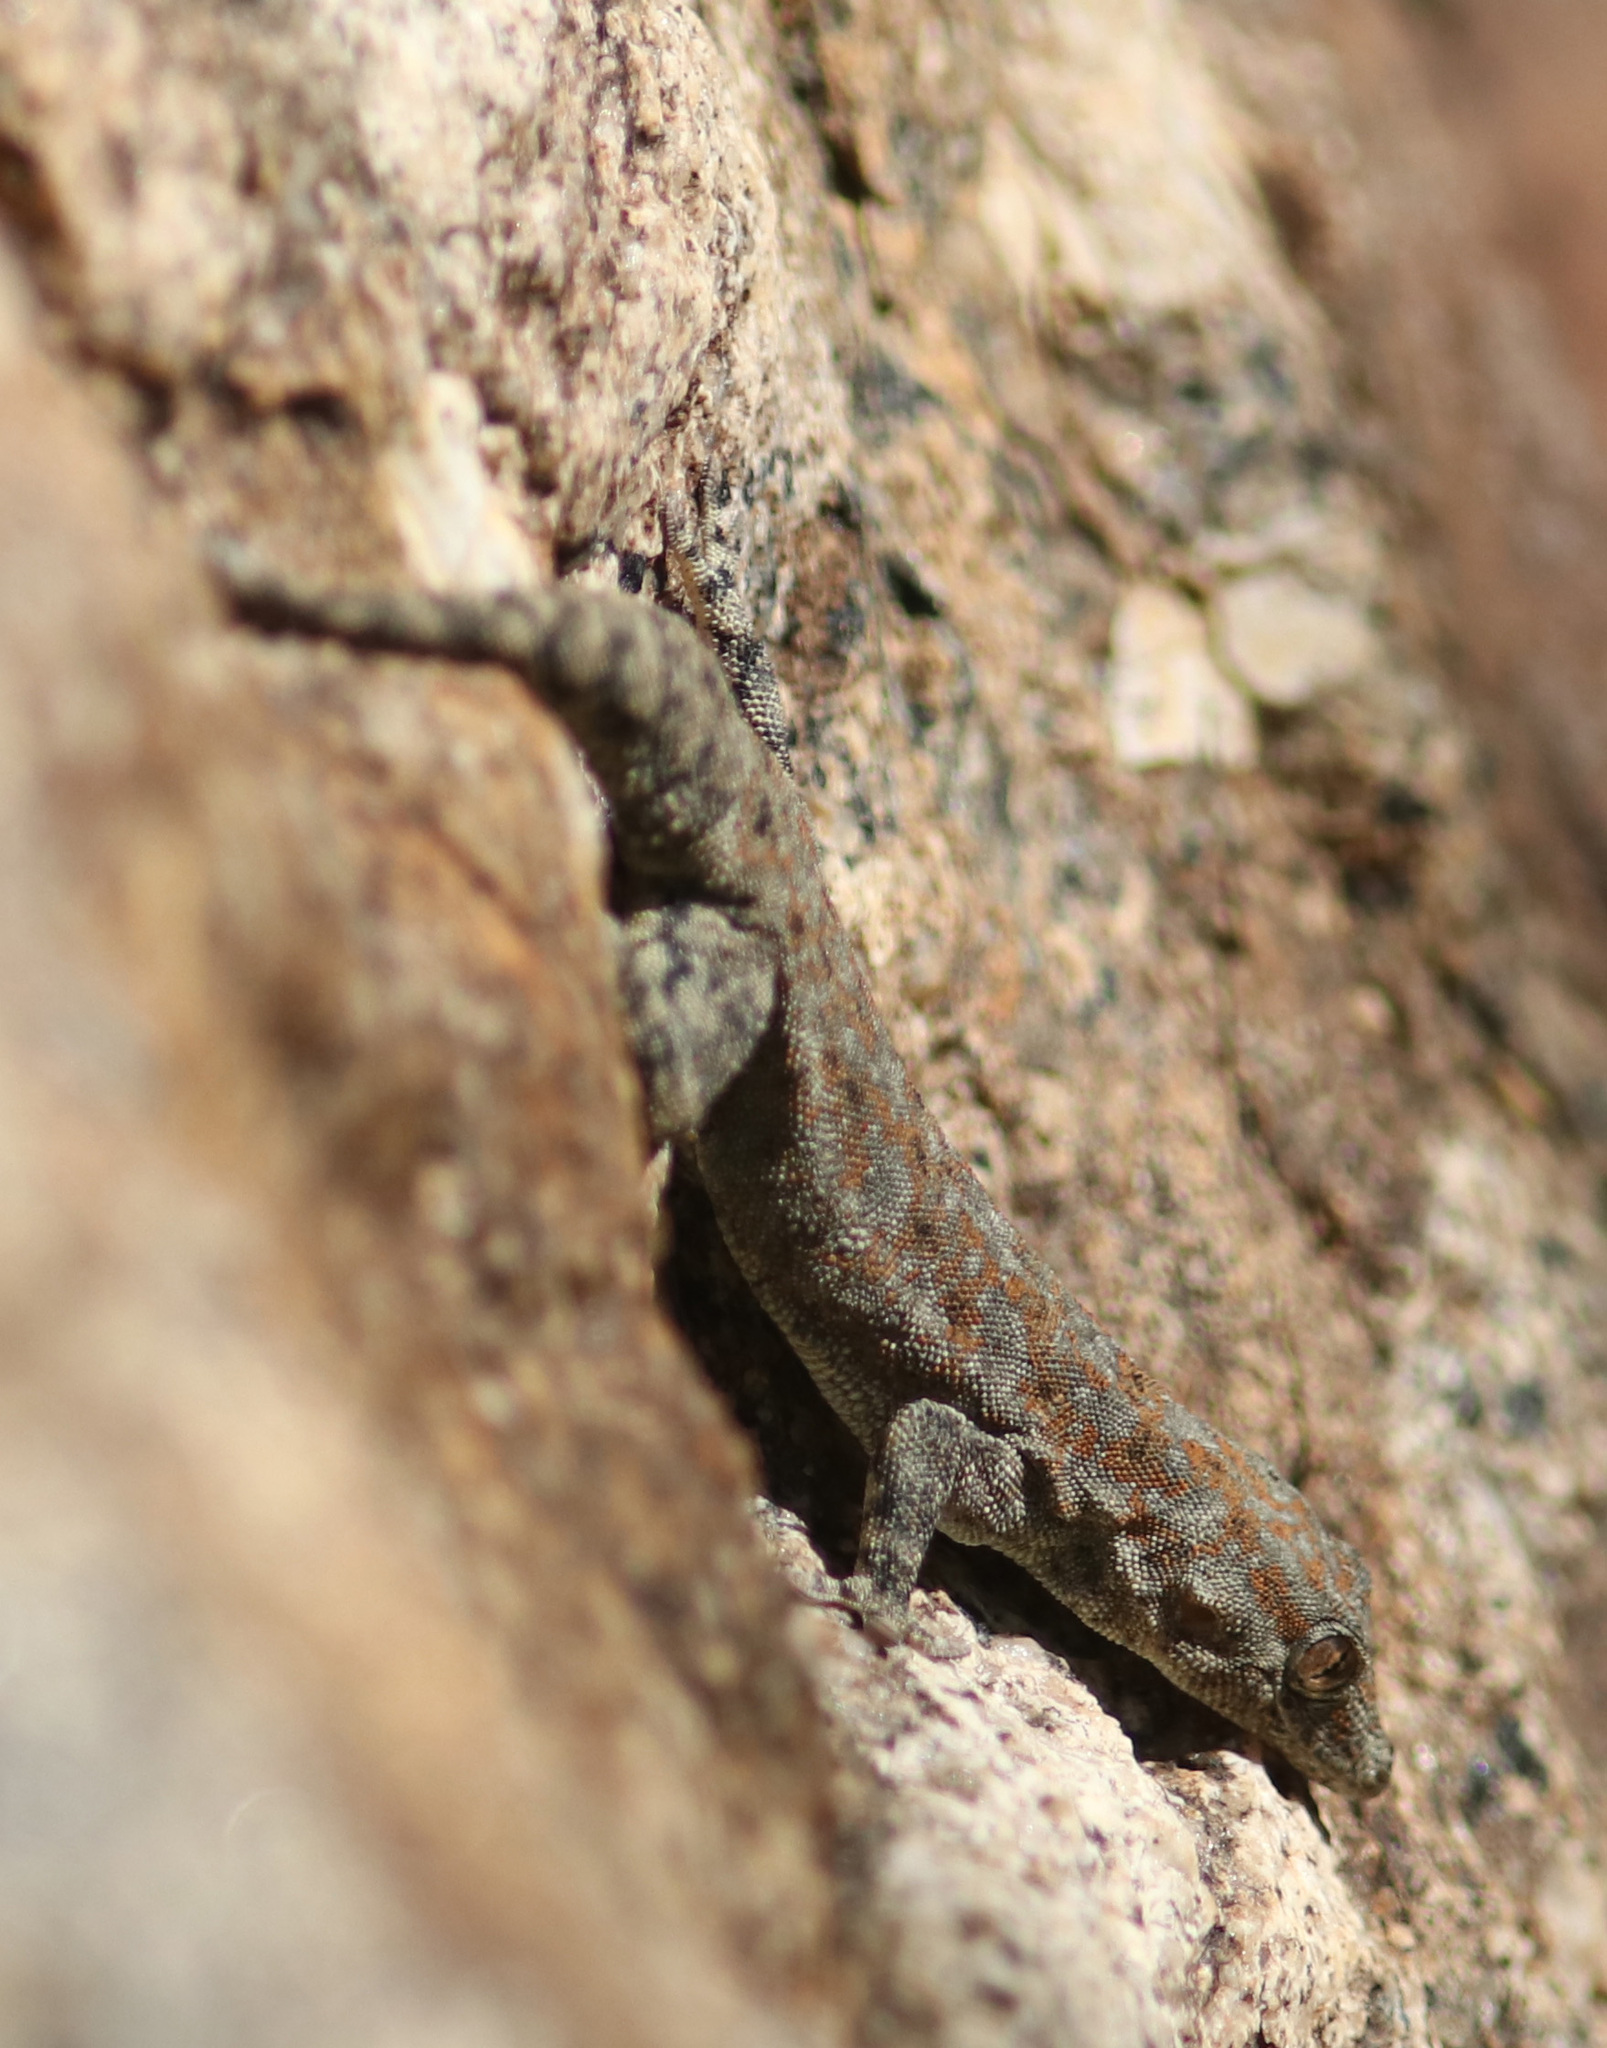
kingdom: Animalia
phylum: Chordata
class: Squamata
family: Gekkonidae
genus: Rhoptropus
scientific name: Rhoptropus barnardi
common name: Barnard’s namib day gecko
